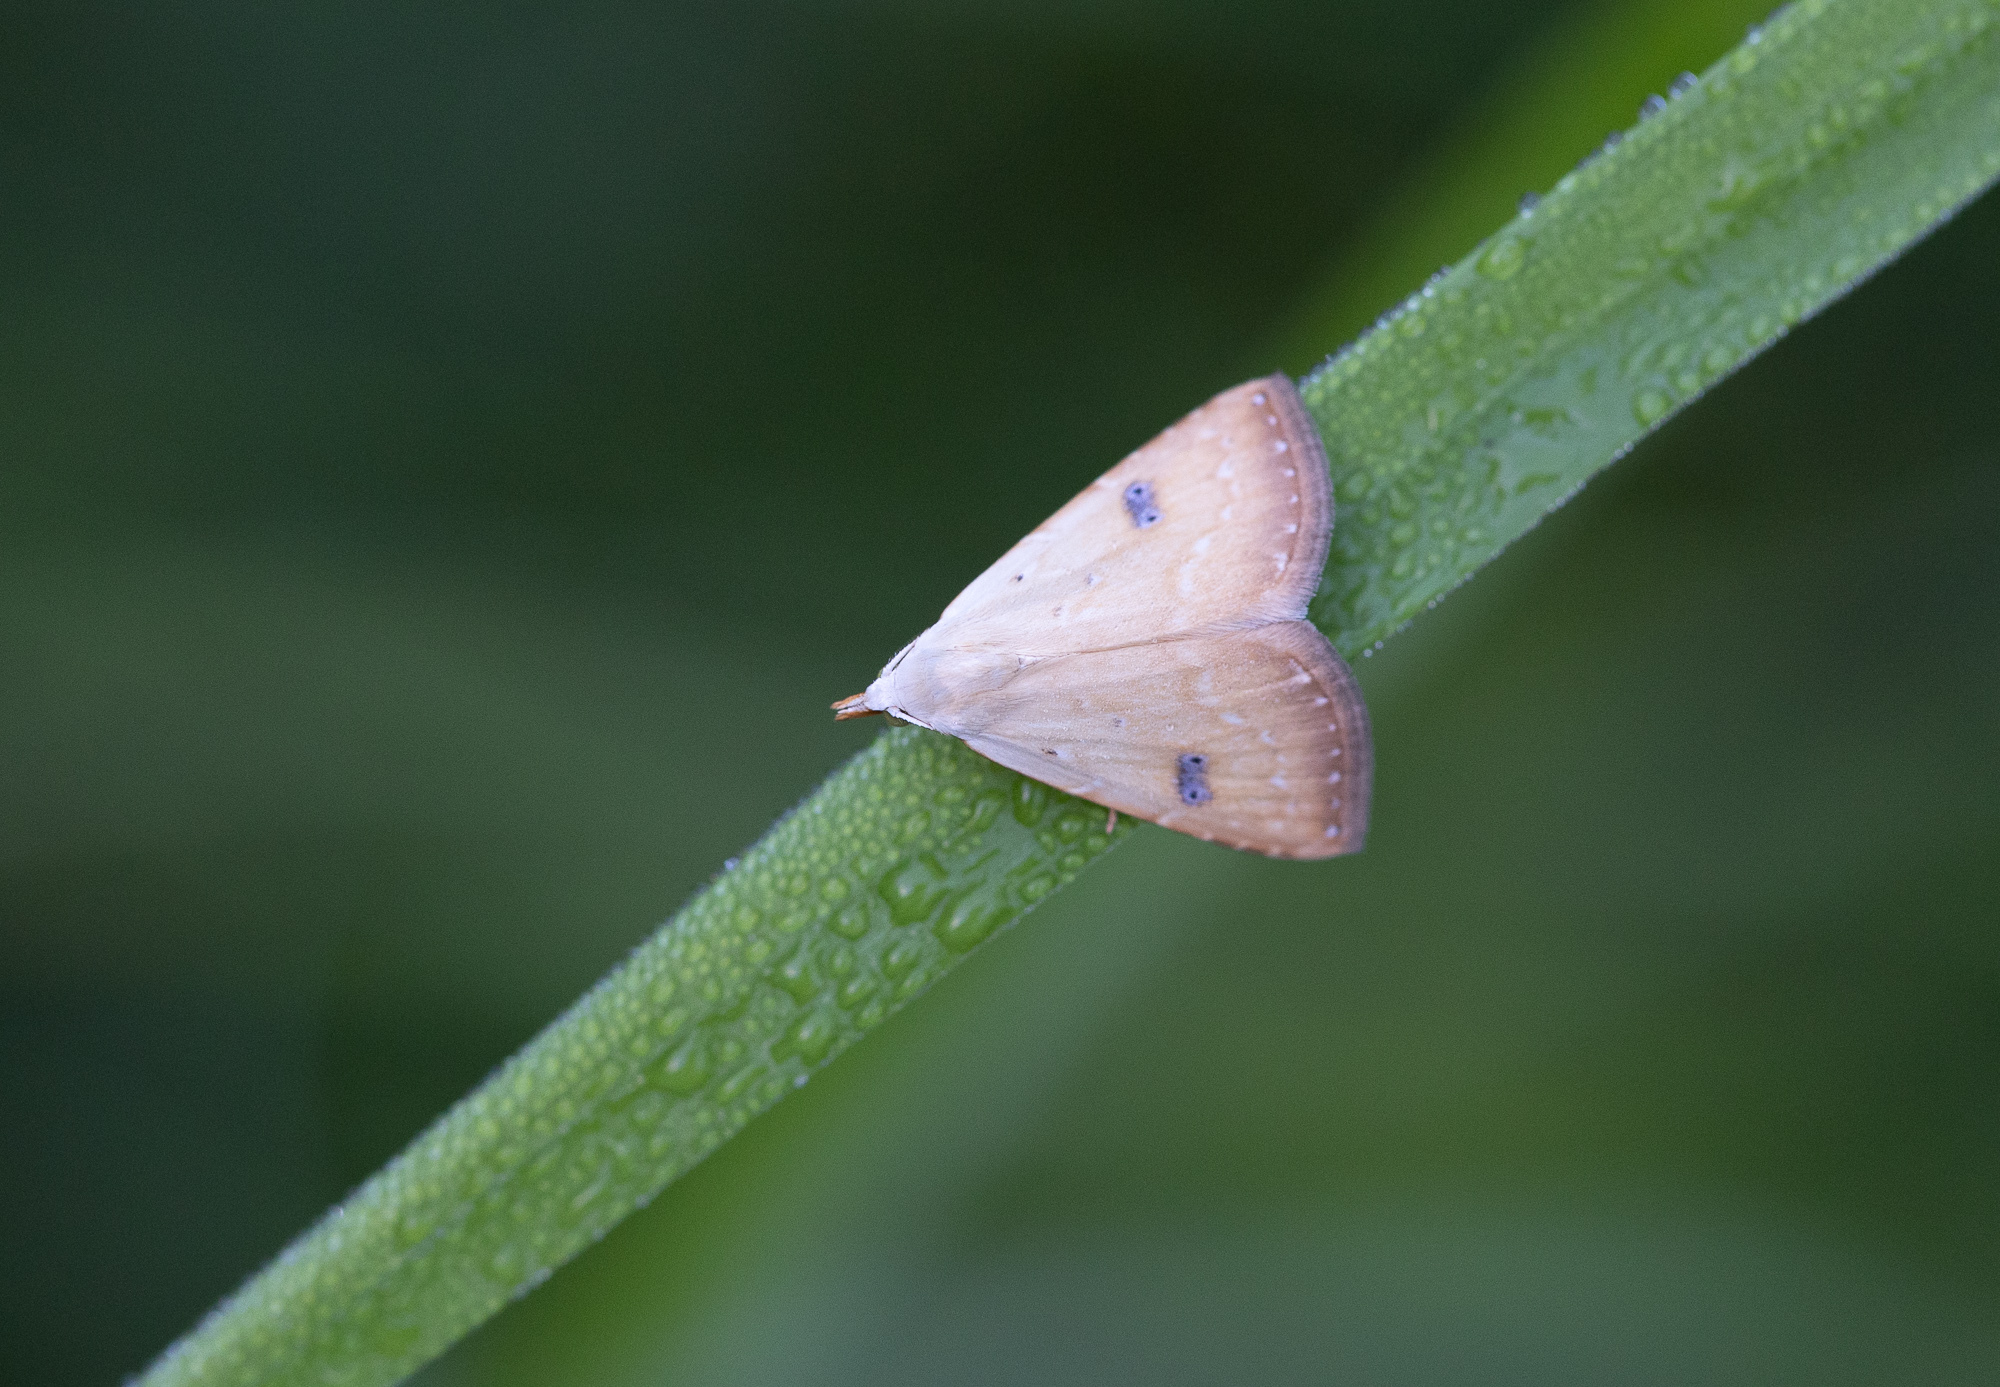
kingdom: Animalia
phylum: Arthropoda
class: Insecta
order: Lepidoptera
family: Erebidae
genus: Rivula
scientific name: Rivula sericealis
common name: Straw dot
